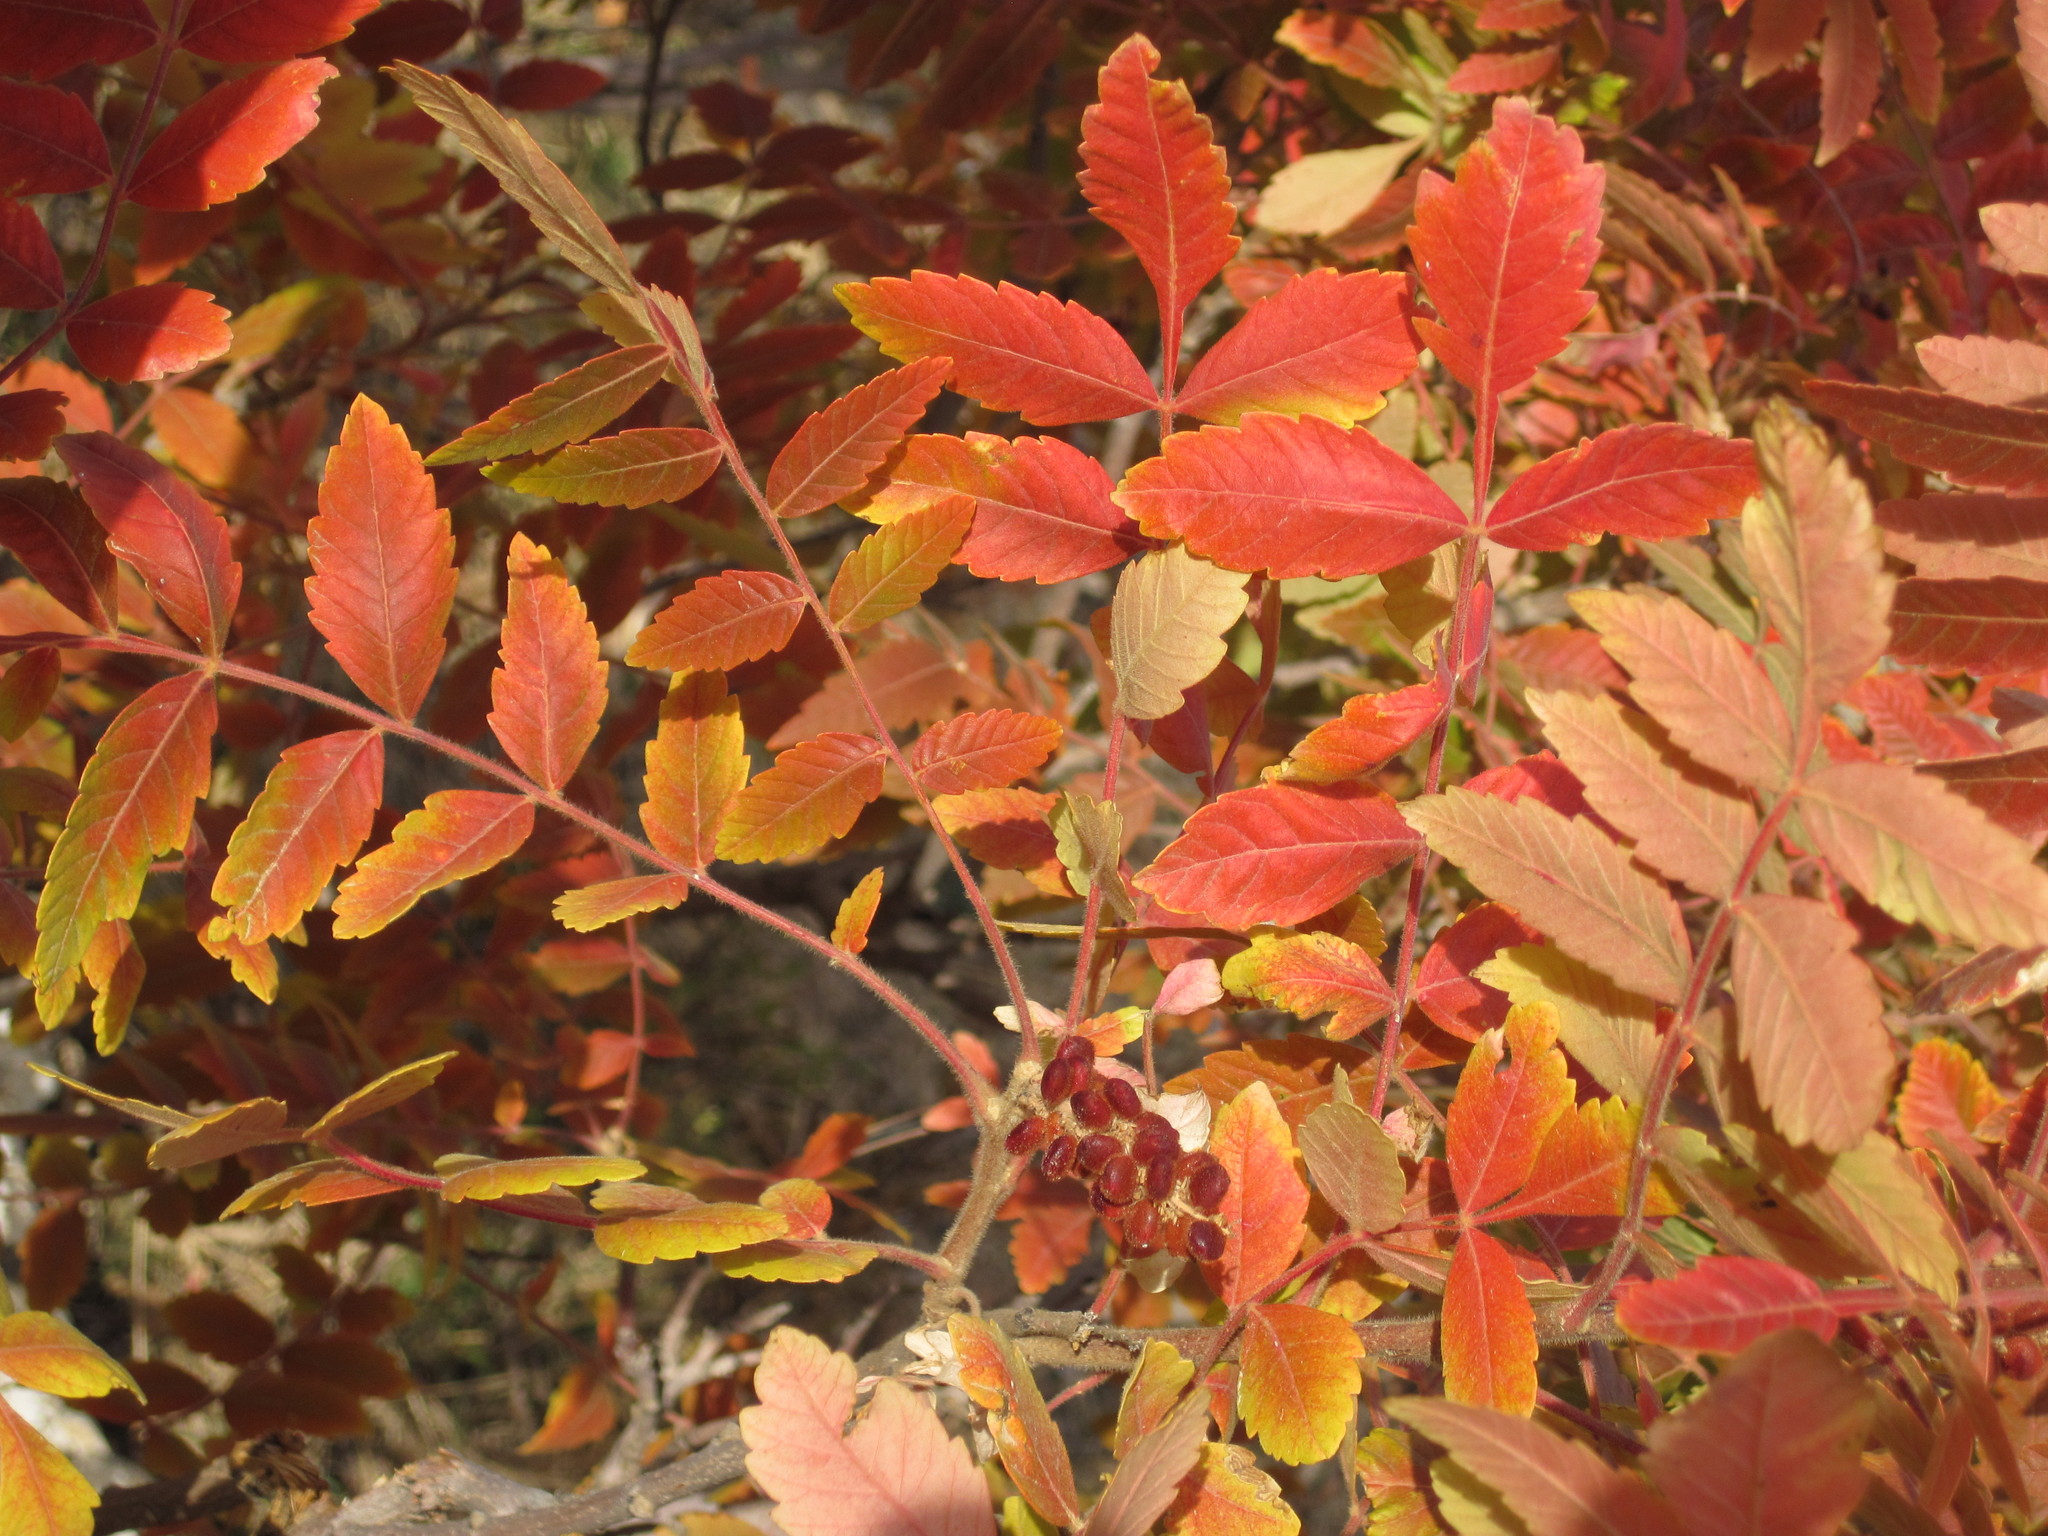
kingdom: Plantae
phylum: Tracheophyta
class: Magnoliopsida
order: Sapindales
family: Anacardiaceae
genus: Rhus
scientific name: Rhus coriaria
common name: Tanner's sumach
